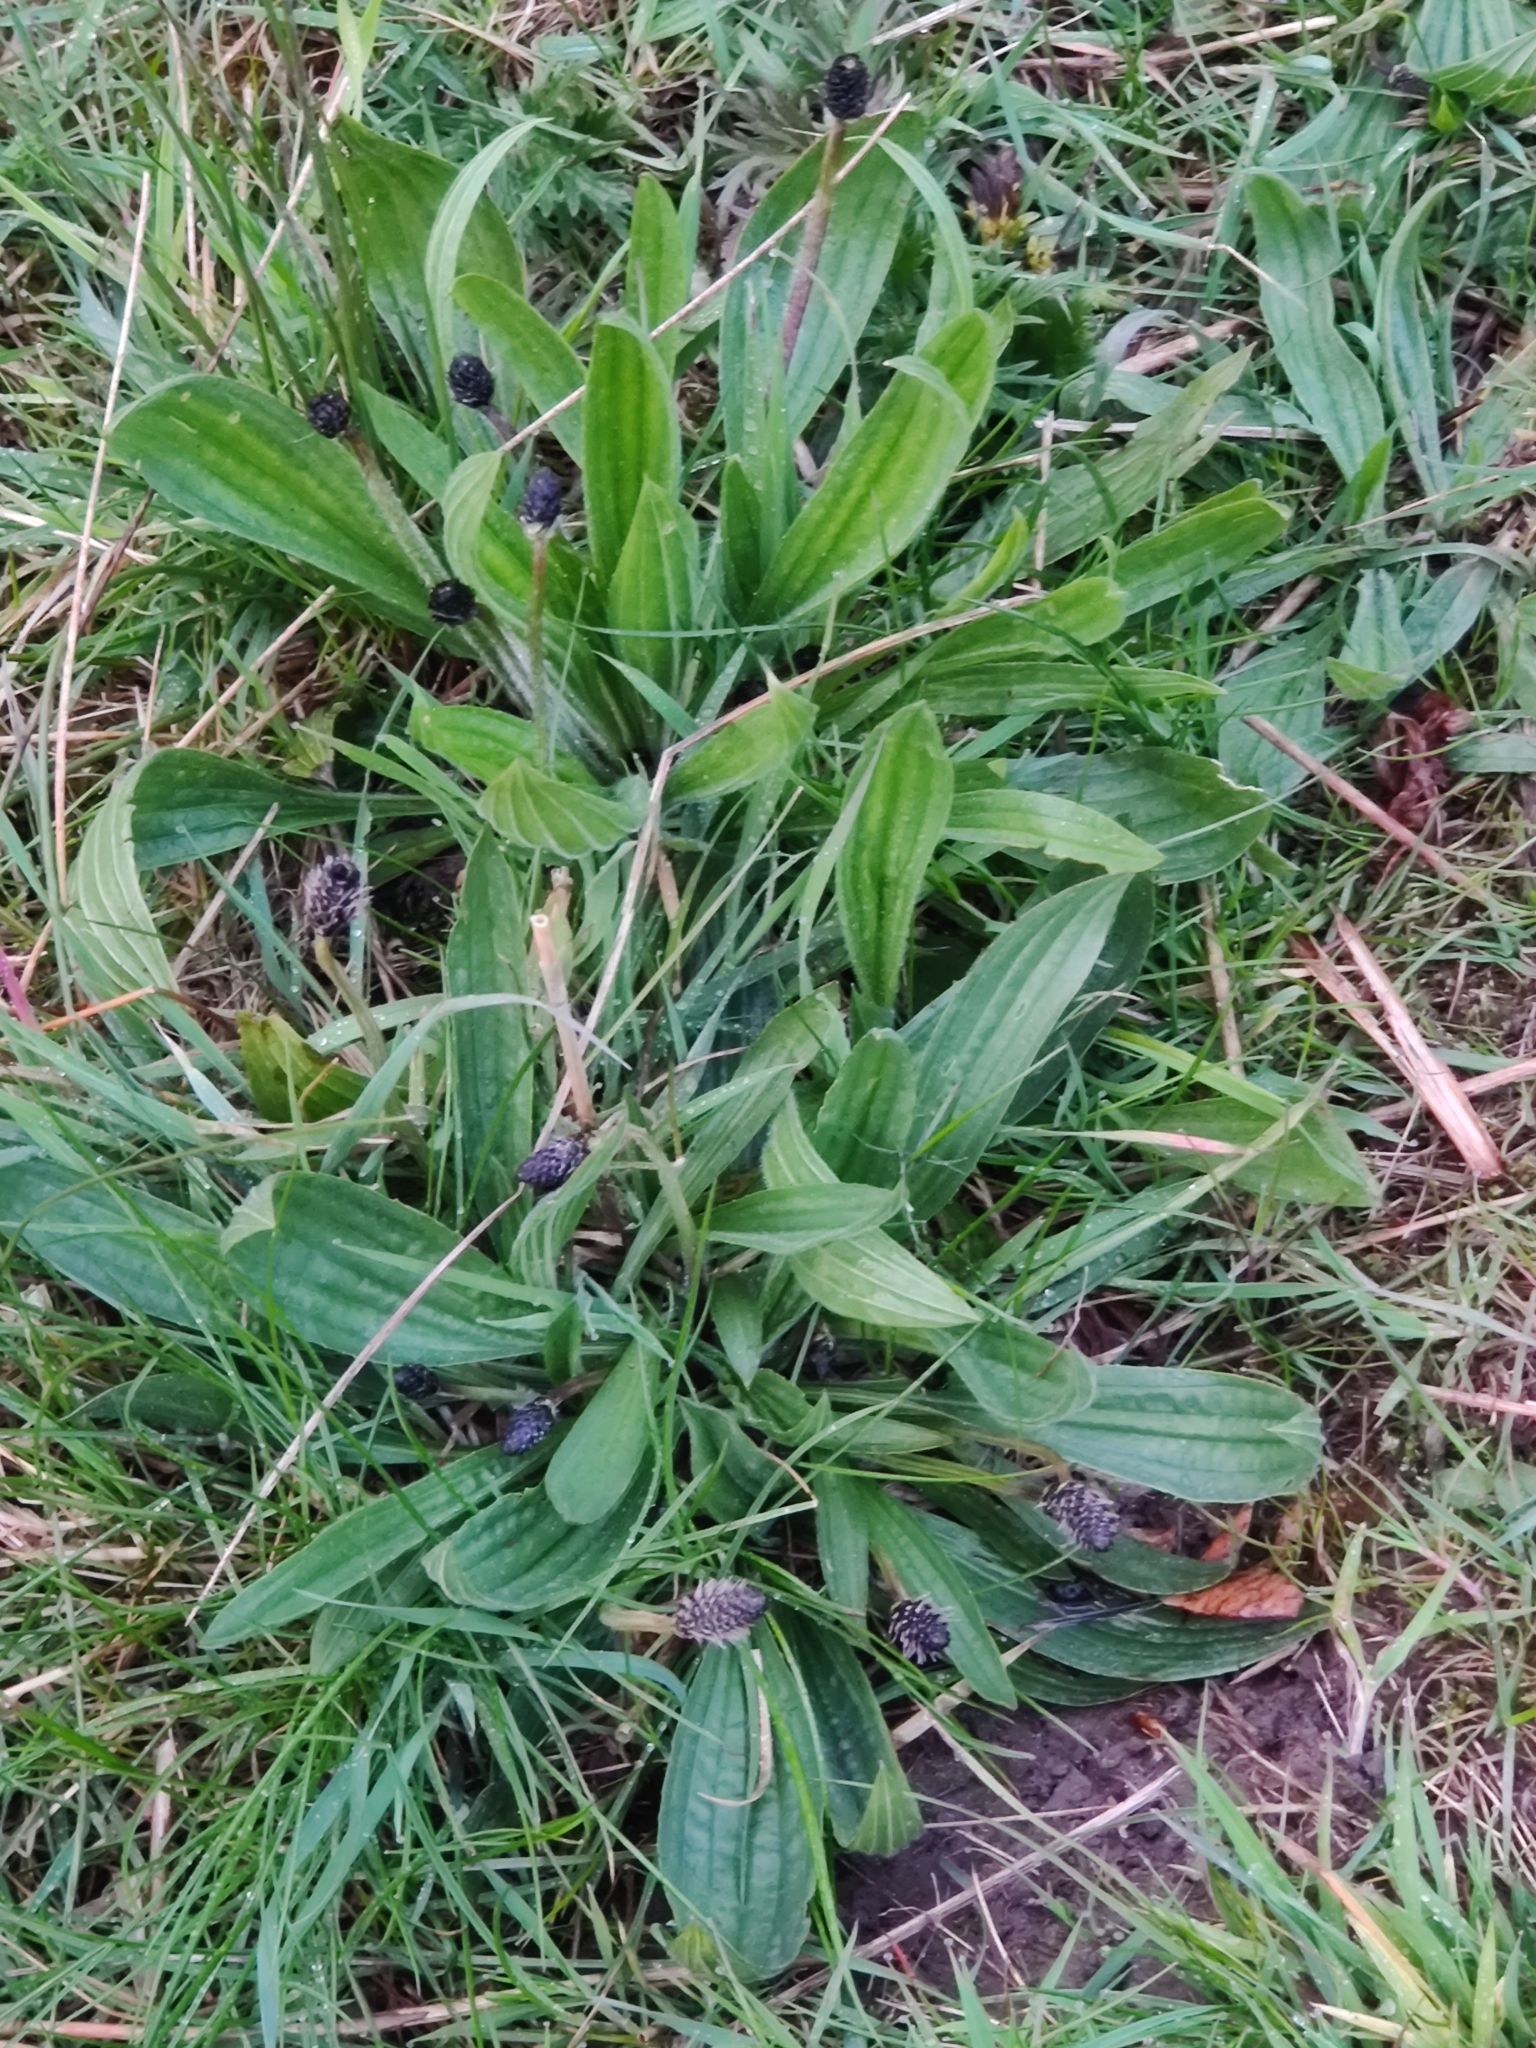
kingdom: Plantae
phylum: Tracheophyta
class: Magnoliopsida
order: Lamiales
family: Plantaginaceae
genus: Plantago
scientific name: Plantago lanceolata
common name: Ribwort plantain
